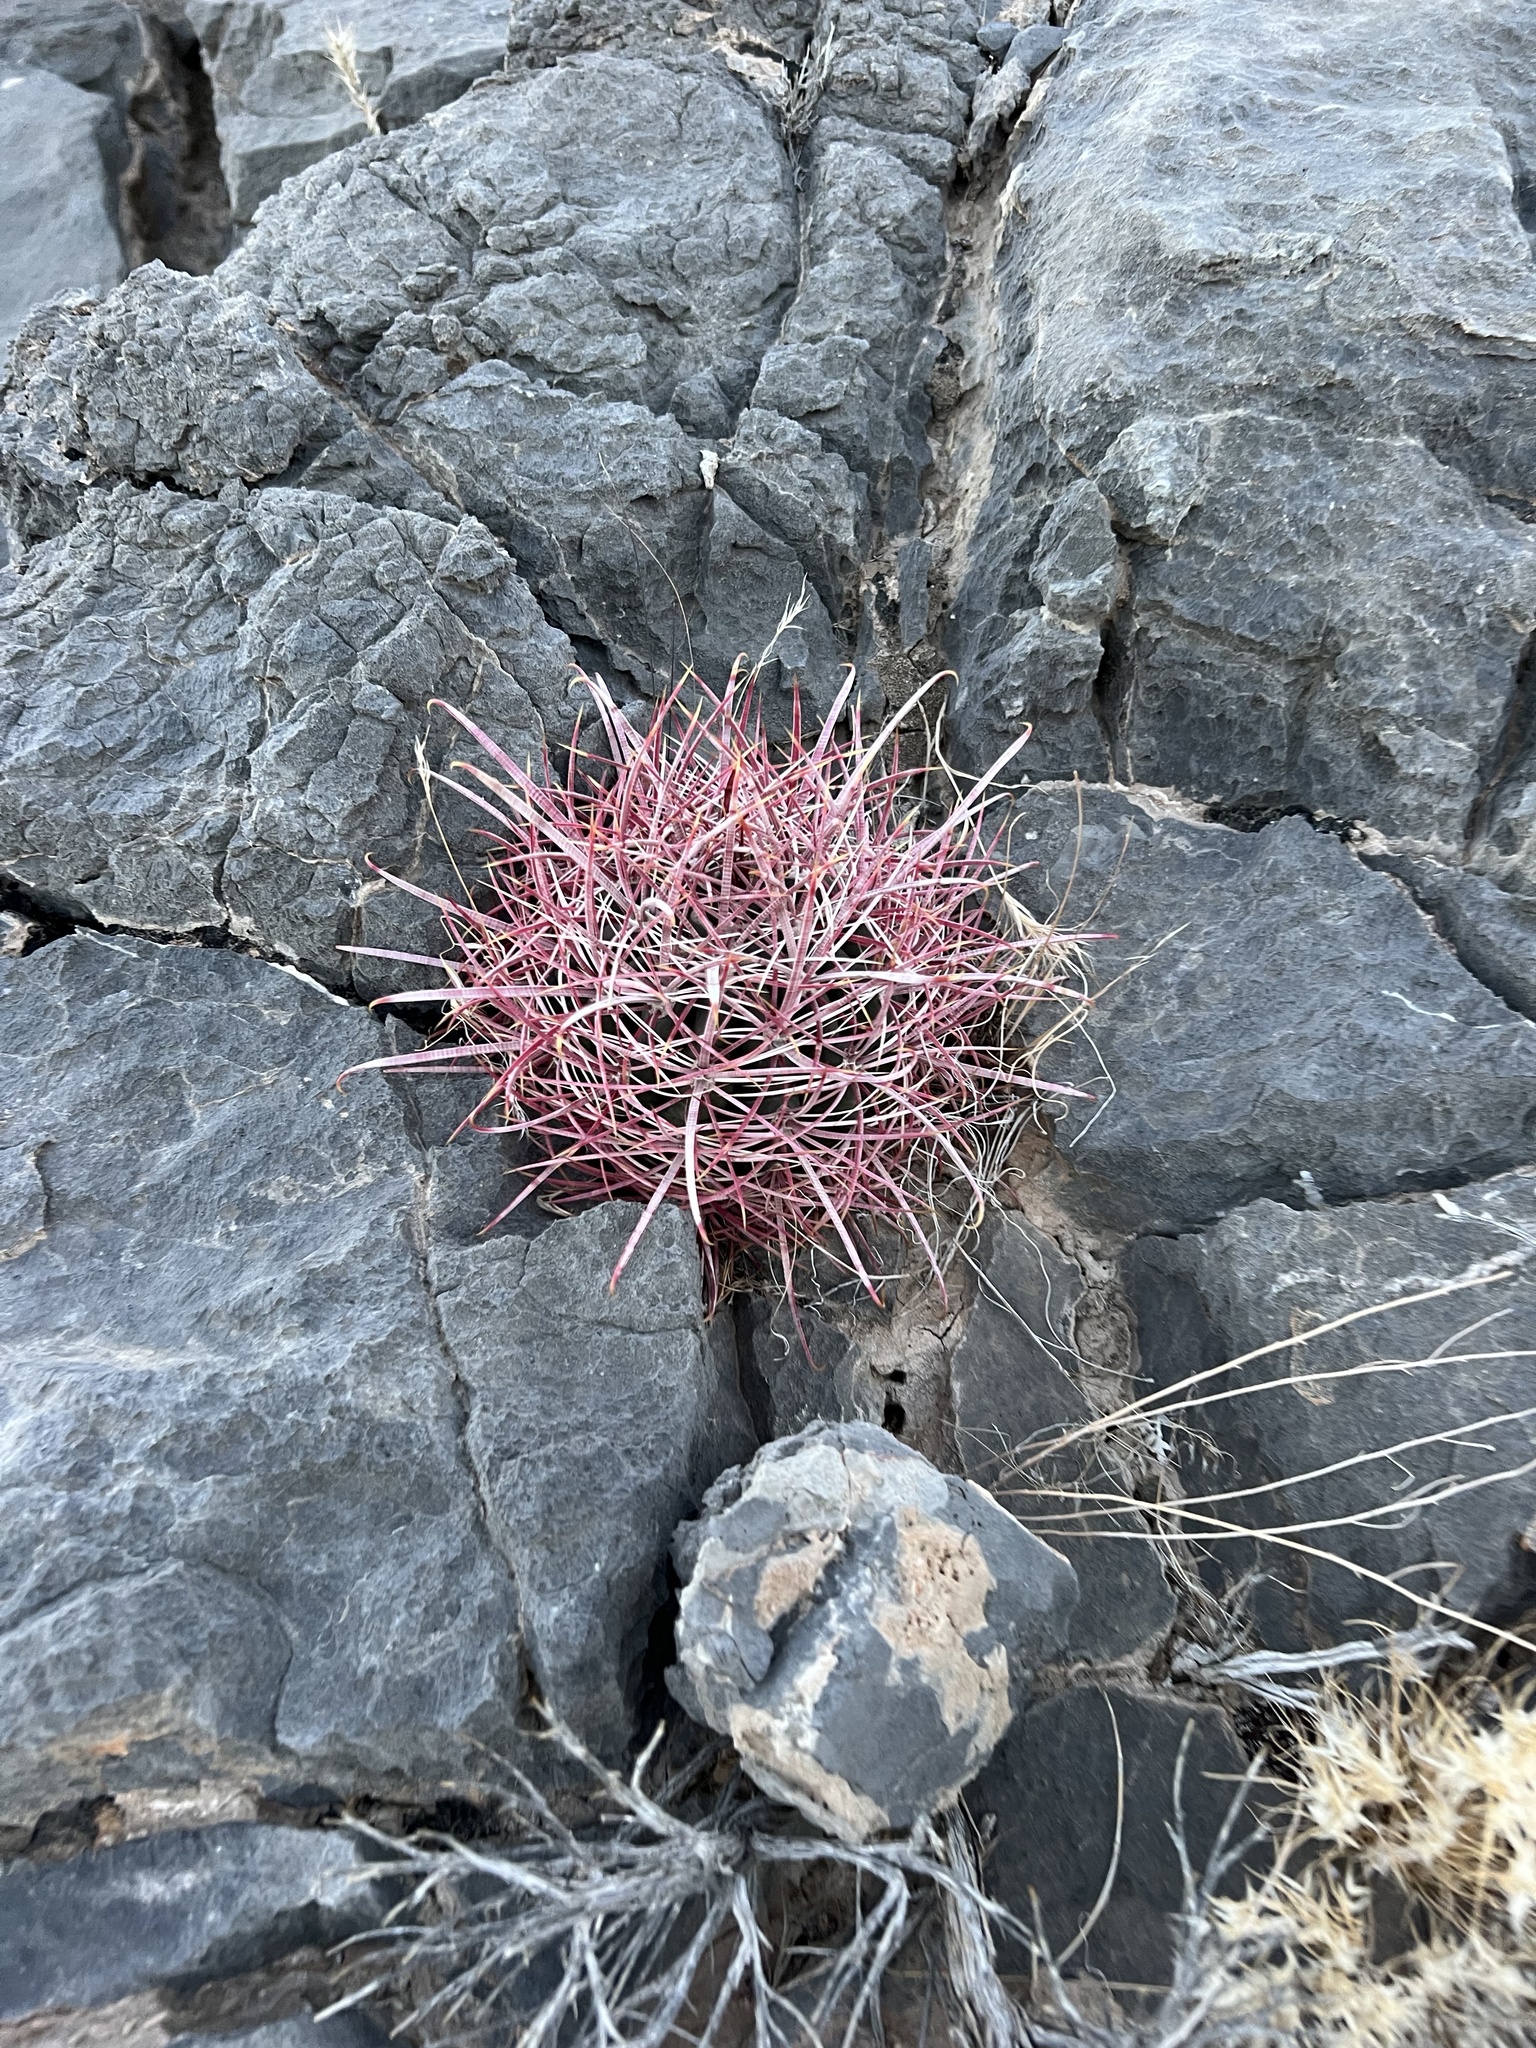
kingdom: Plantae
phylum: Tracheophyta
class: Magnoliopsida
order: Caryophyllales
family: Cactaceae
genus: Ferocactus
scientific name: Ferocactus cylindraceus
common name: California barrel cactus
